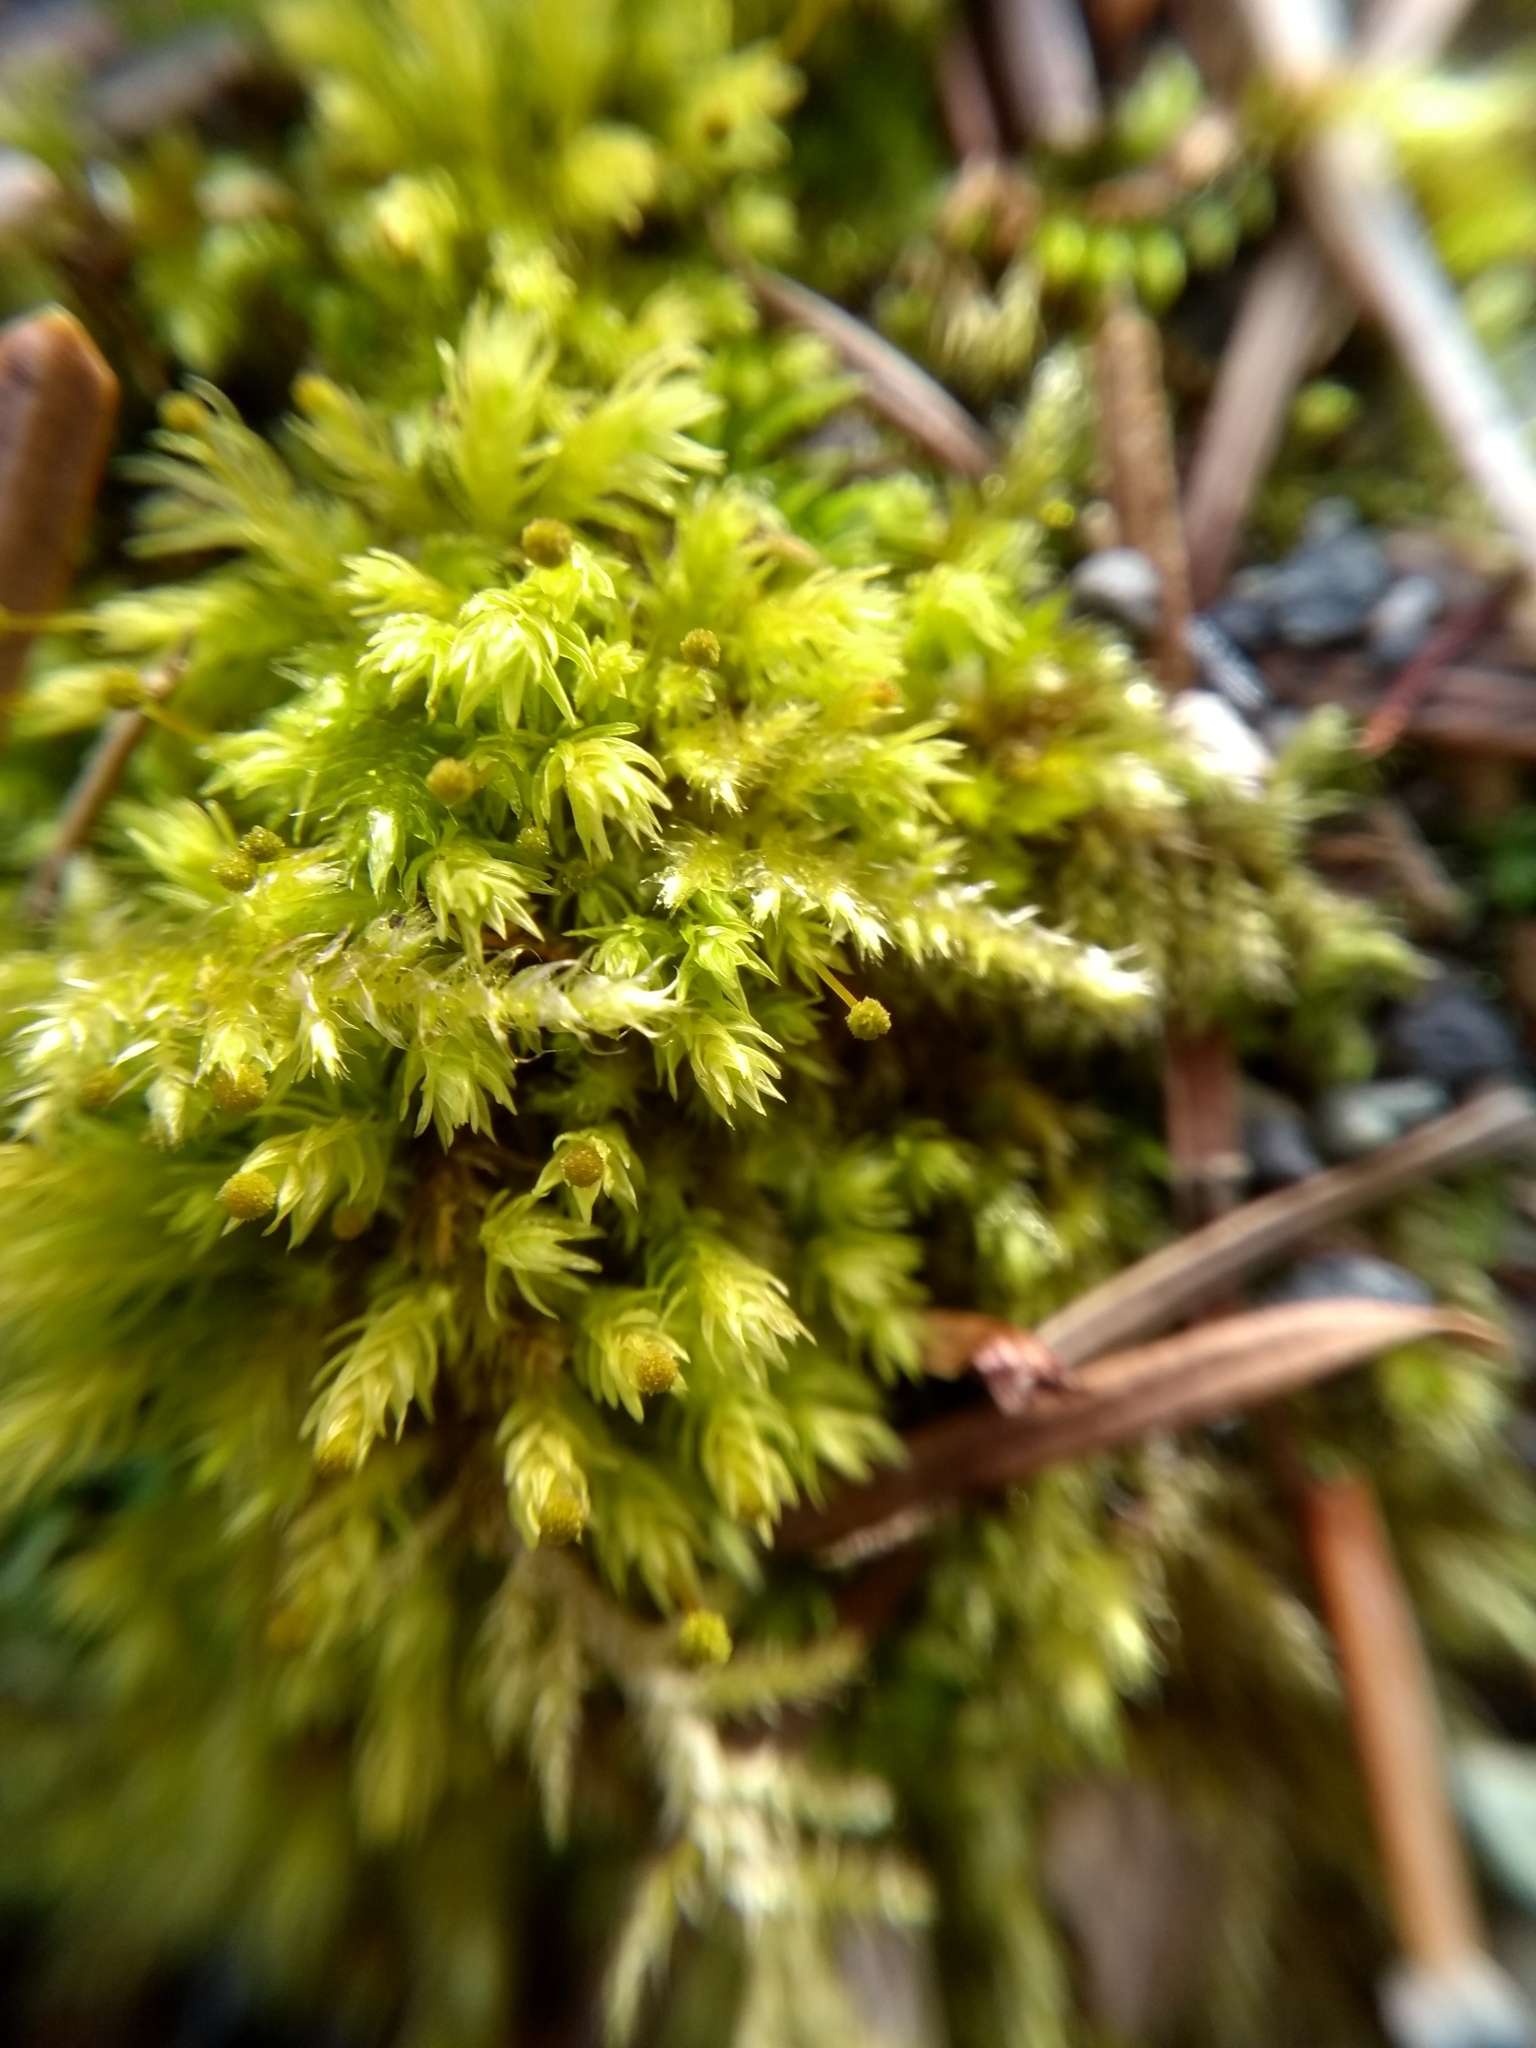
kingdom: Plantae
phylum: Bryophyta
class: Bryopsida
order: Aulacomniales
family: Aulacomniaceae
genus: Aulacomnium
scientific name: Aulacomnium androgynum
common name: Little groove moss
